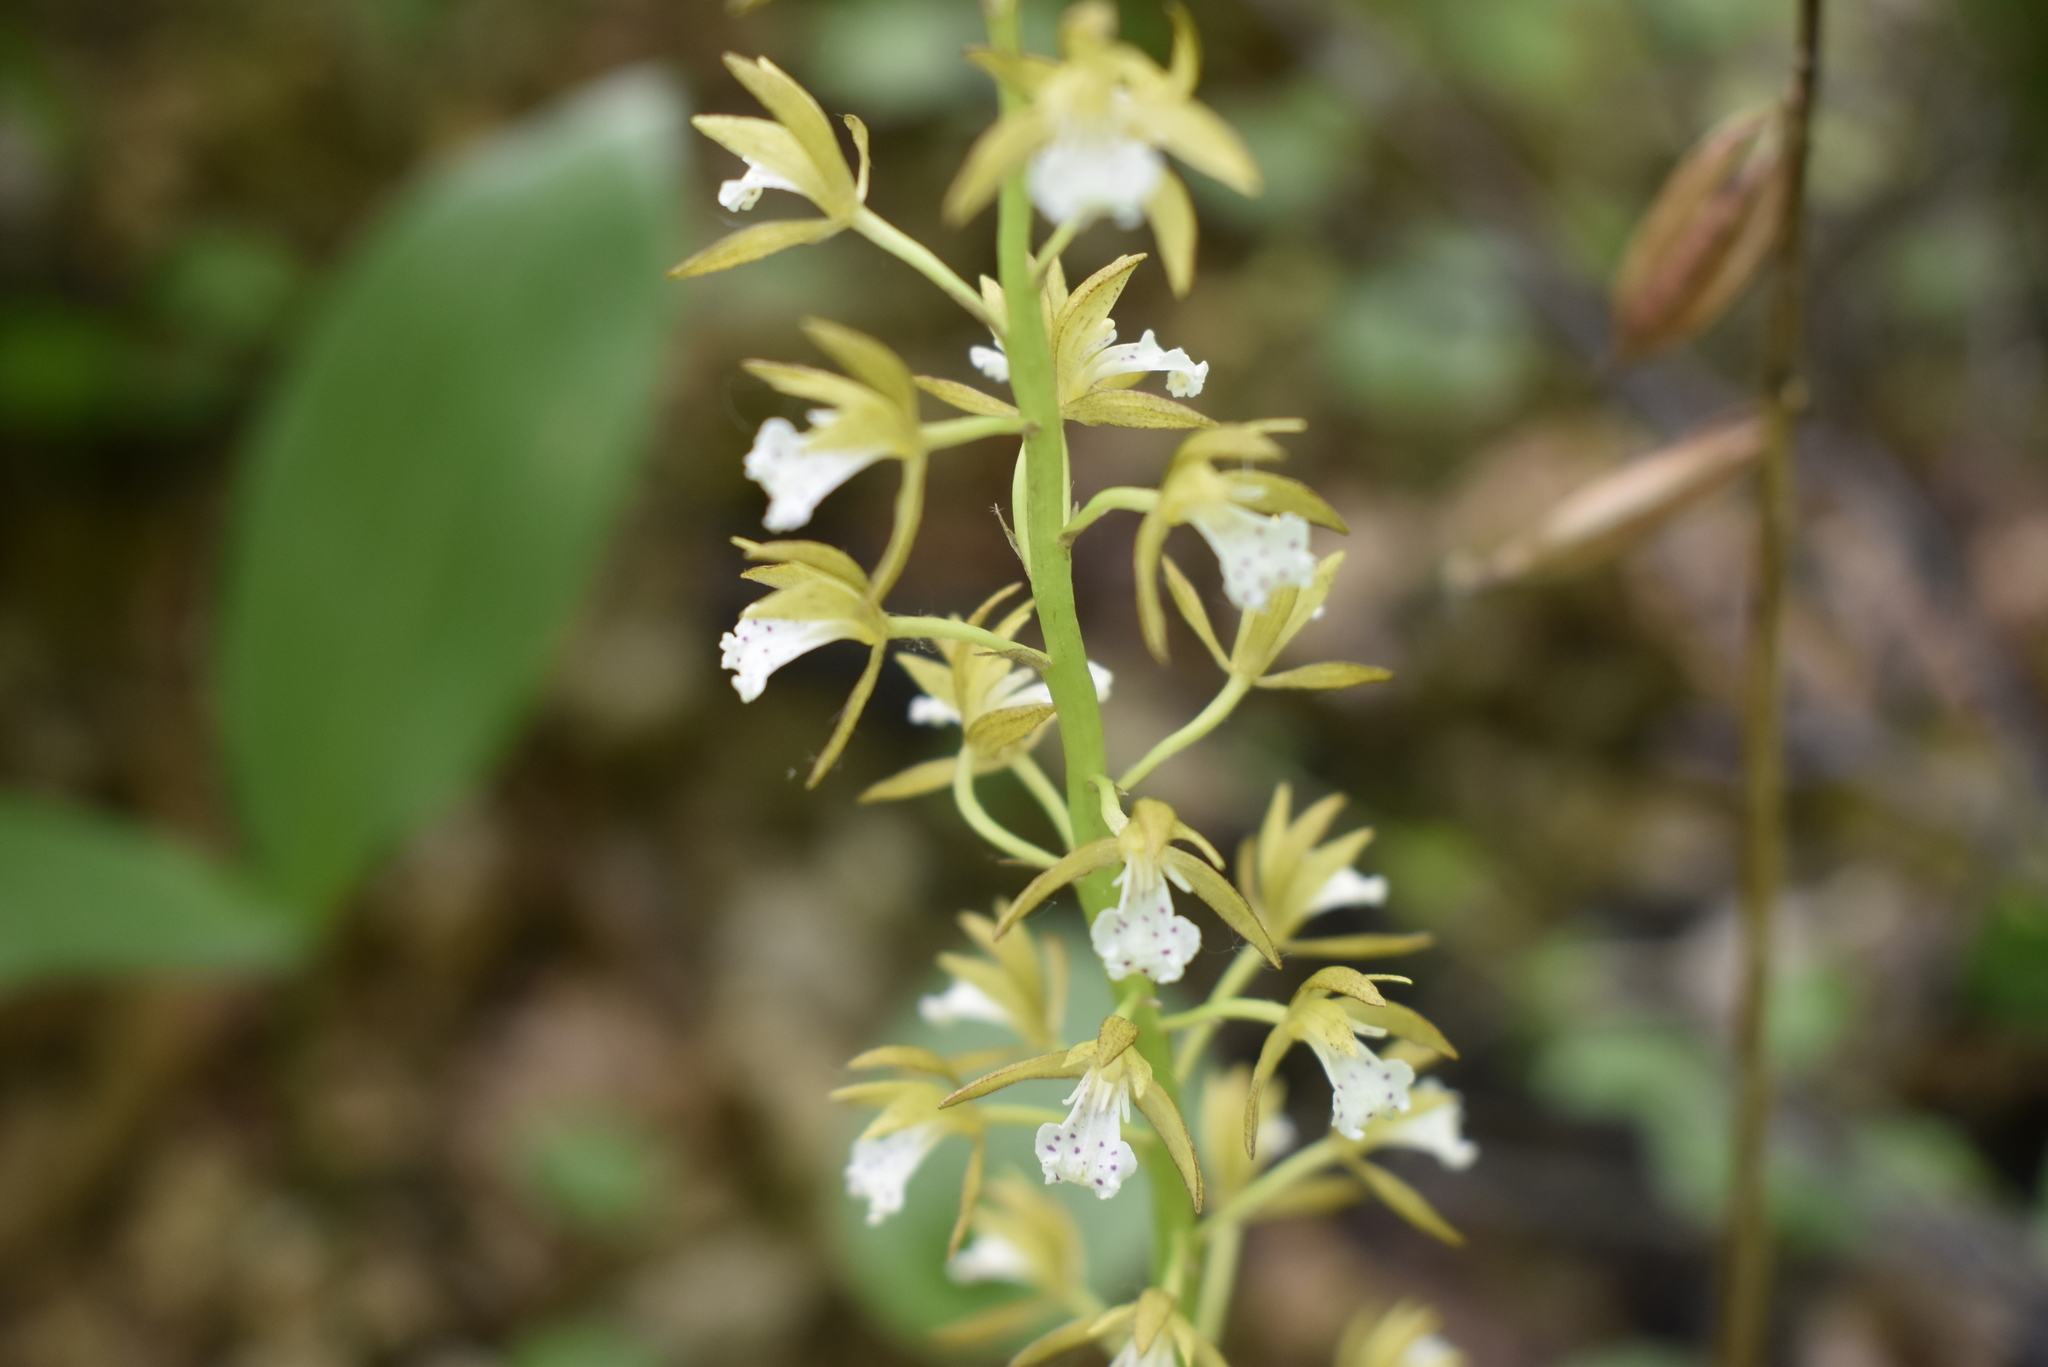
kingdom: Plantae
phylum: Tracheophyta
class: Liliopsida
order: Asparagales
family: Orchidaceae
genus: Oreorchis
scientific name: Oreorchis patens
